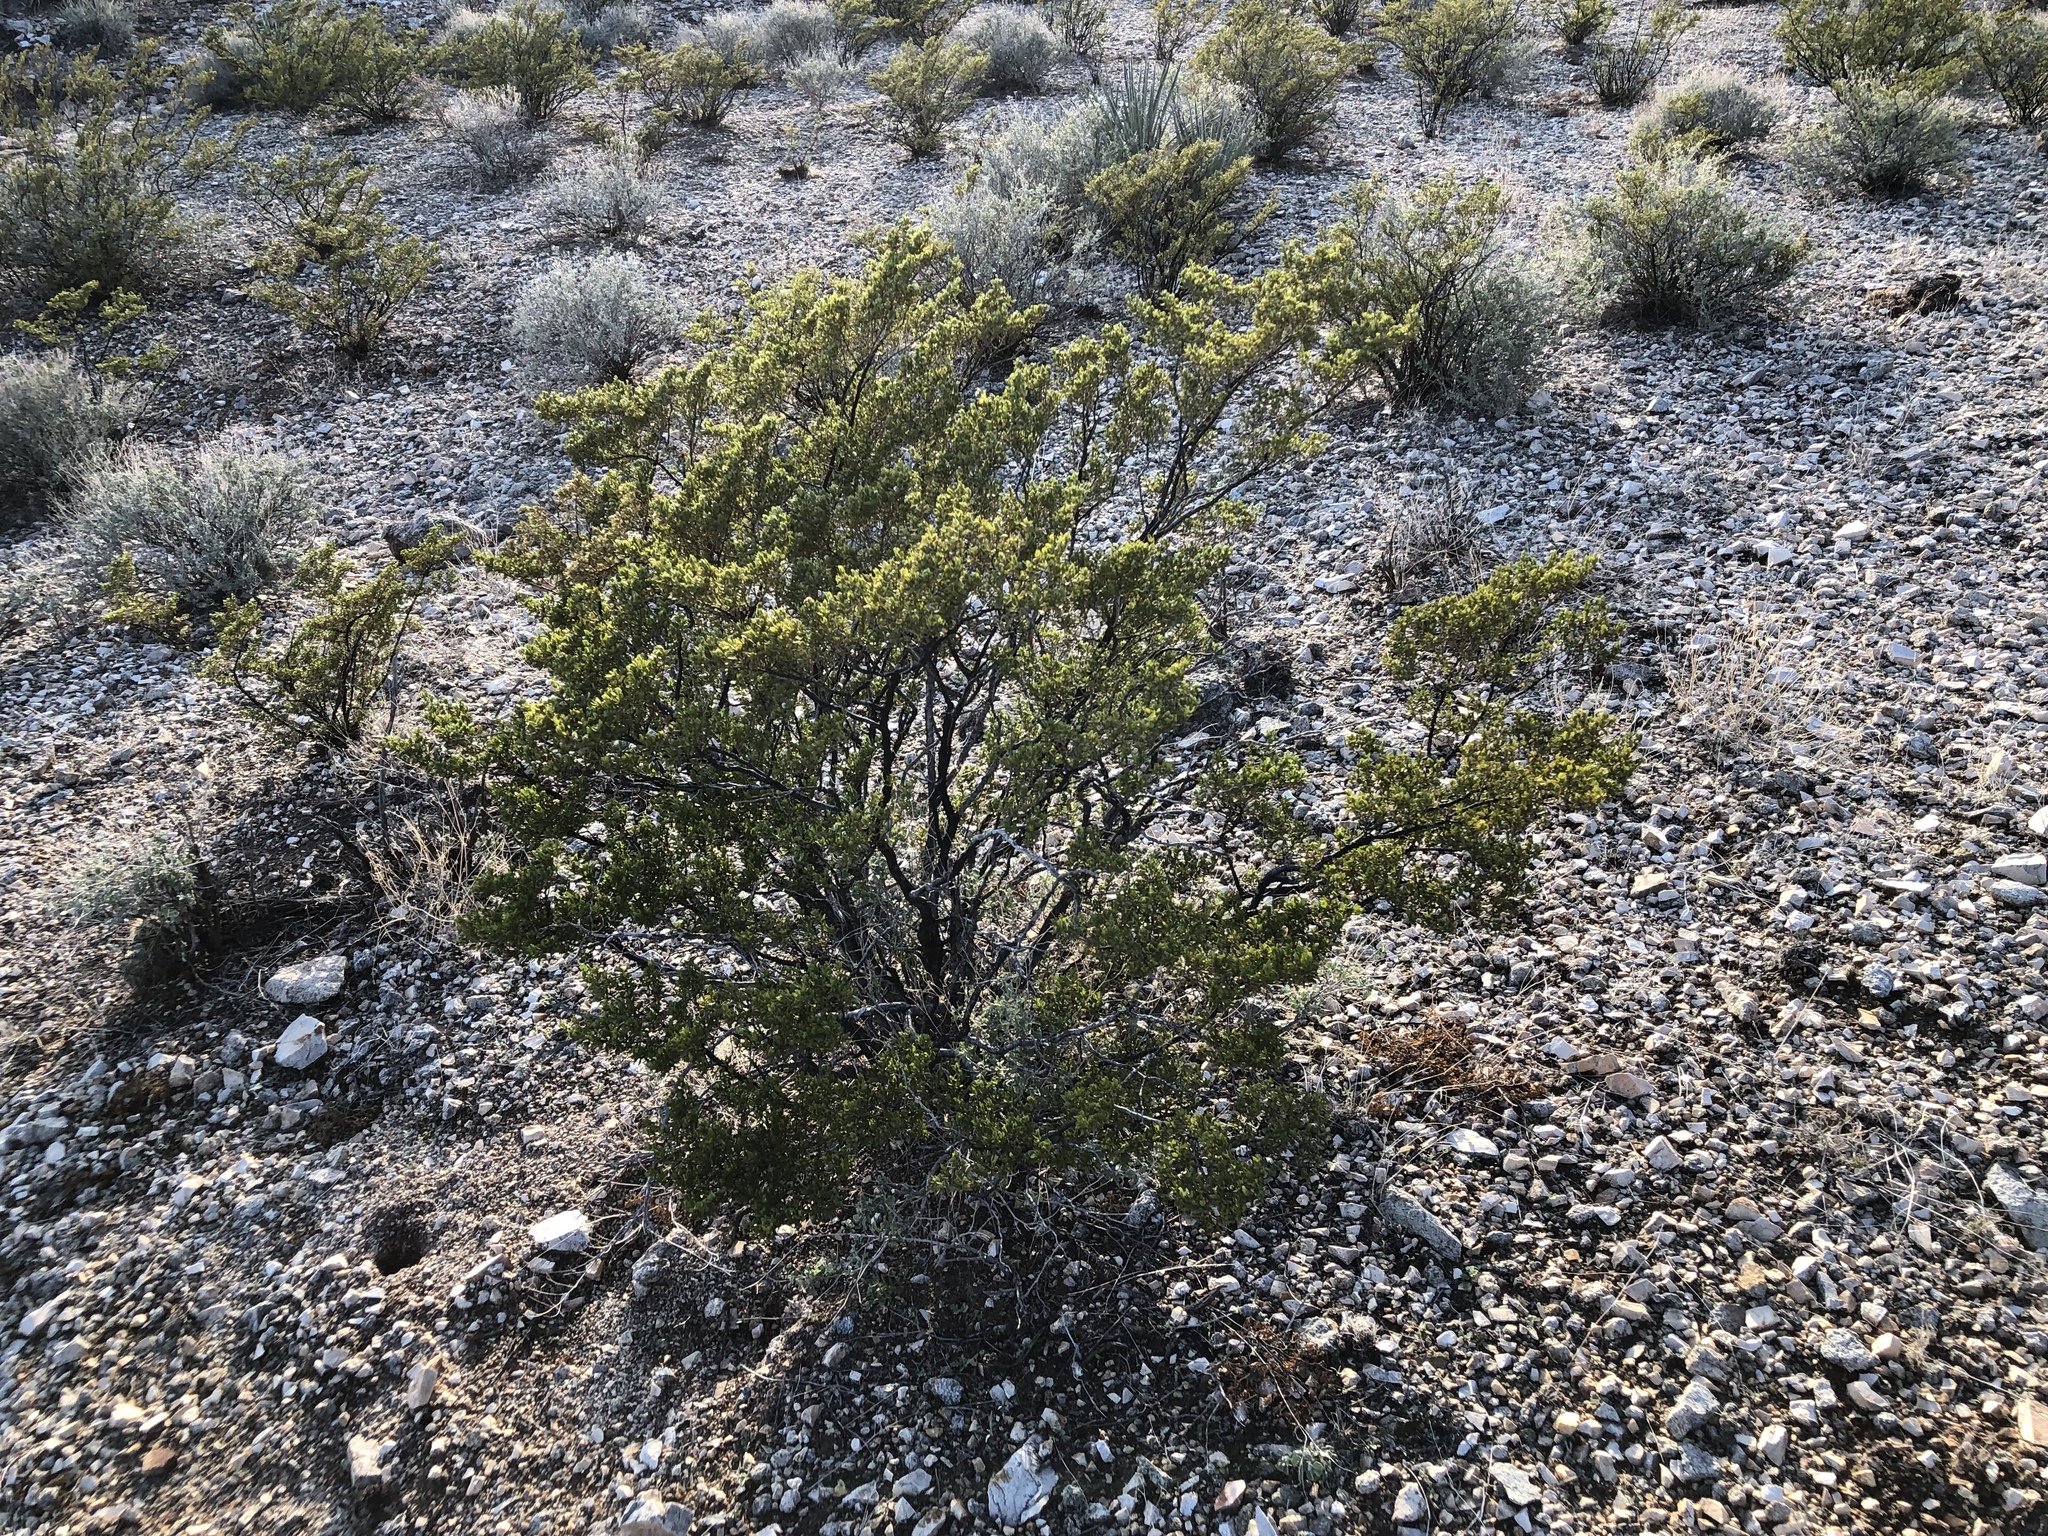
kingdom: Plantae
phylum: Tracheophyta
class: Magnoliopsida
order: Zygophyllales
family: Zygophyllaceae
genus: Larrea
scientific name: Larrea tridentata
